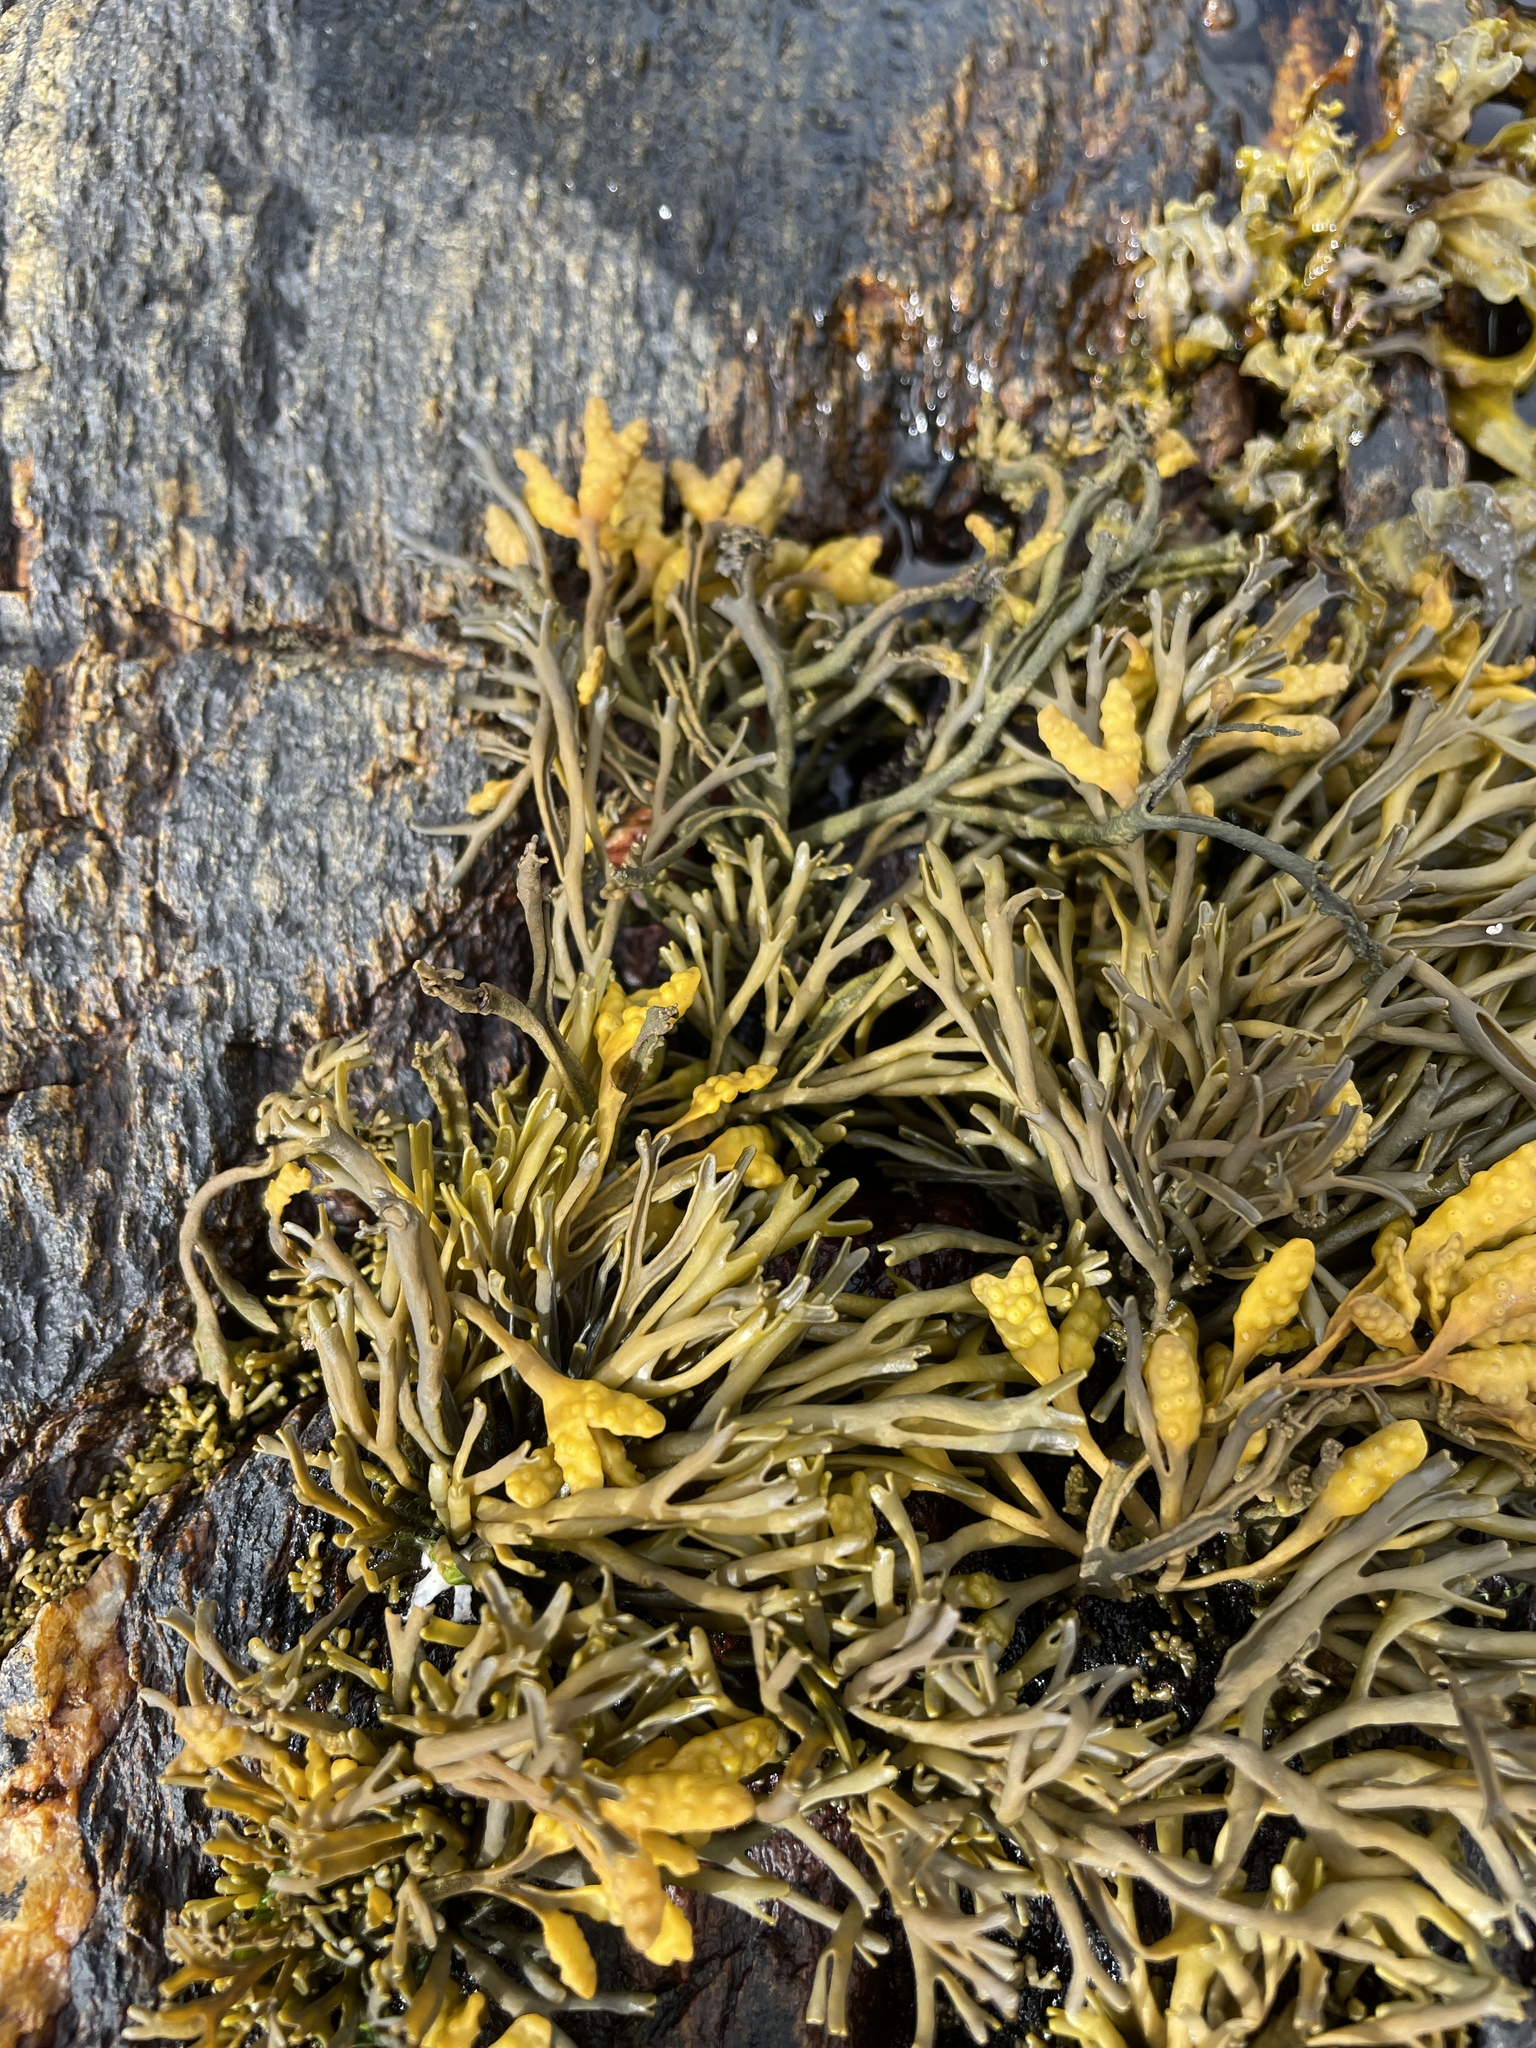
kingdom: Chromista
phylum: Ochrophyta
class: Phaeophyceae
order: Fucales
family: Fucaceae
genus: Pelvetia
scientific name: Pelvetia canaliculata
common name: Channelled wrack
